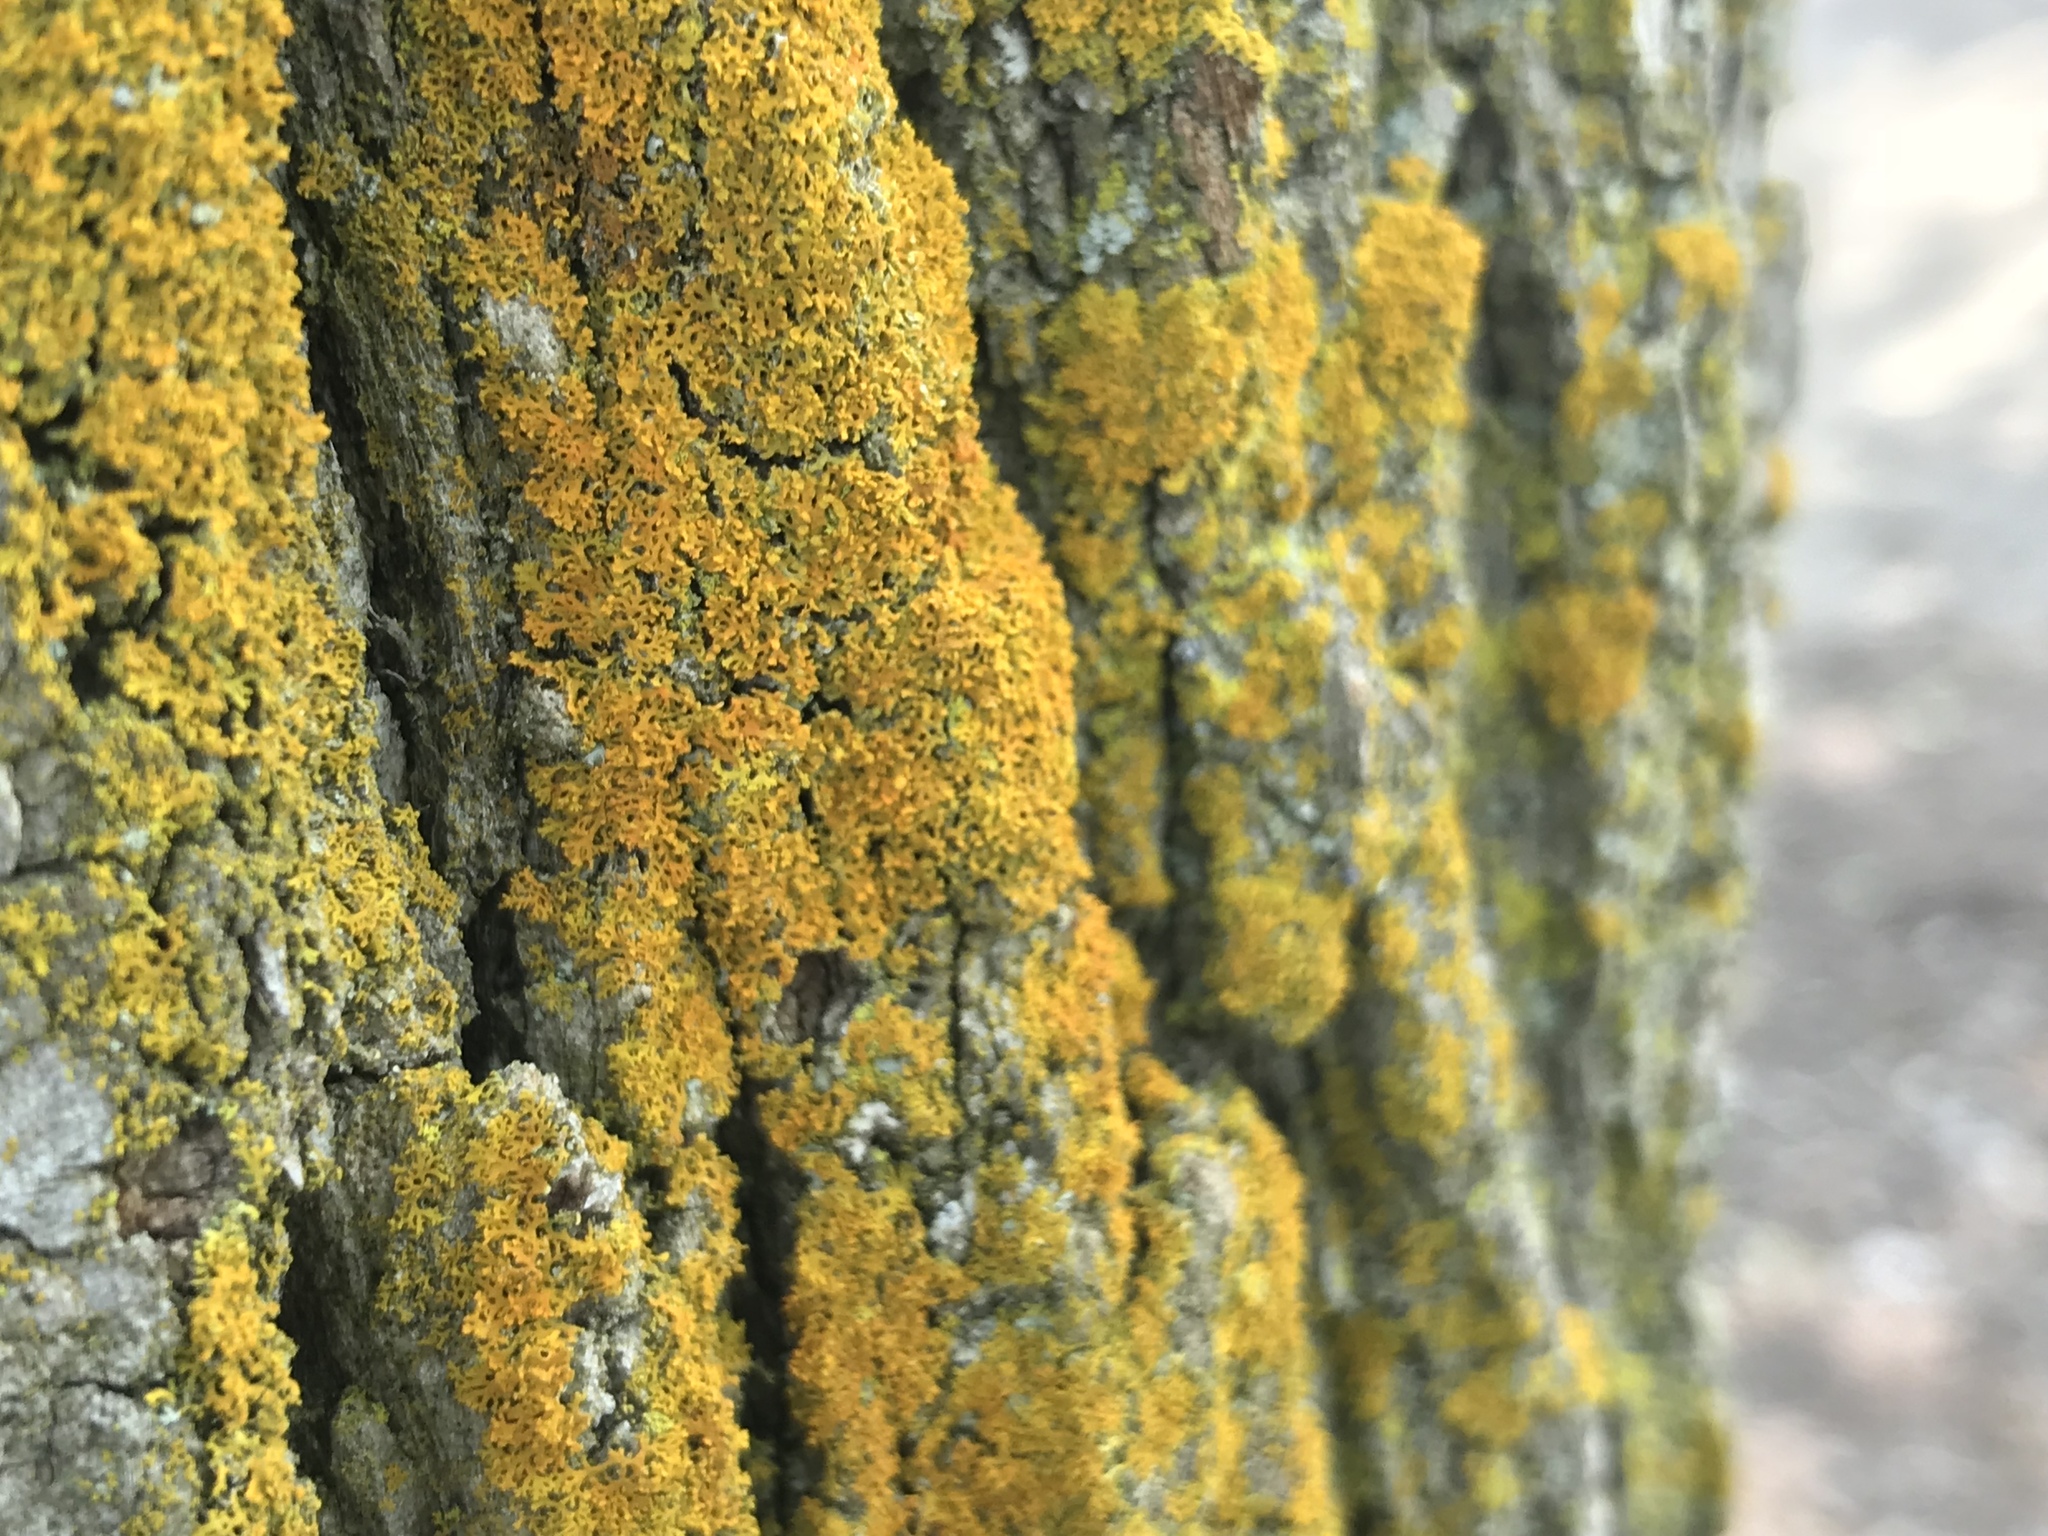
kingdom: Fungi
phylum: Ascomycota
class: Lecanoromycetes
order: Teloschistales
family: Teloschistaceae
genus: Gallowayella
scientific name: Gallowayella weberi
